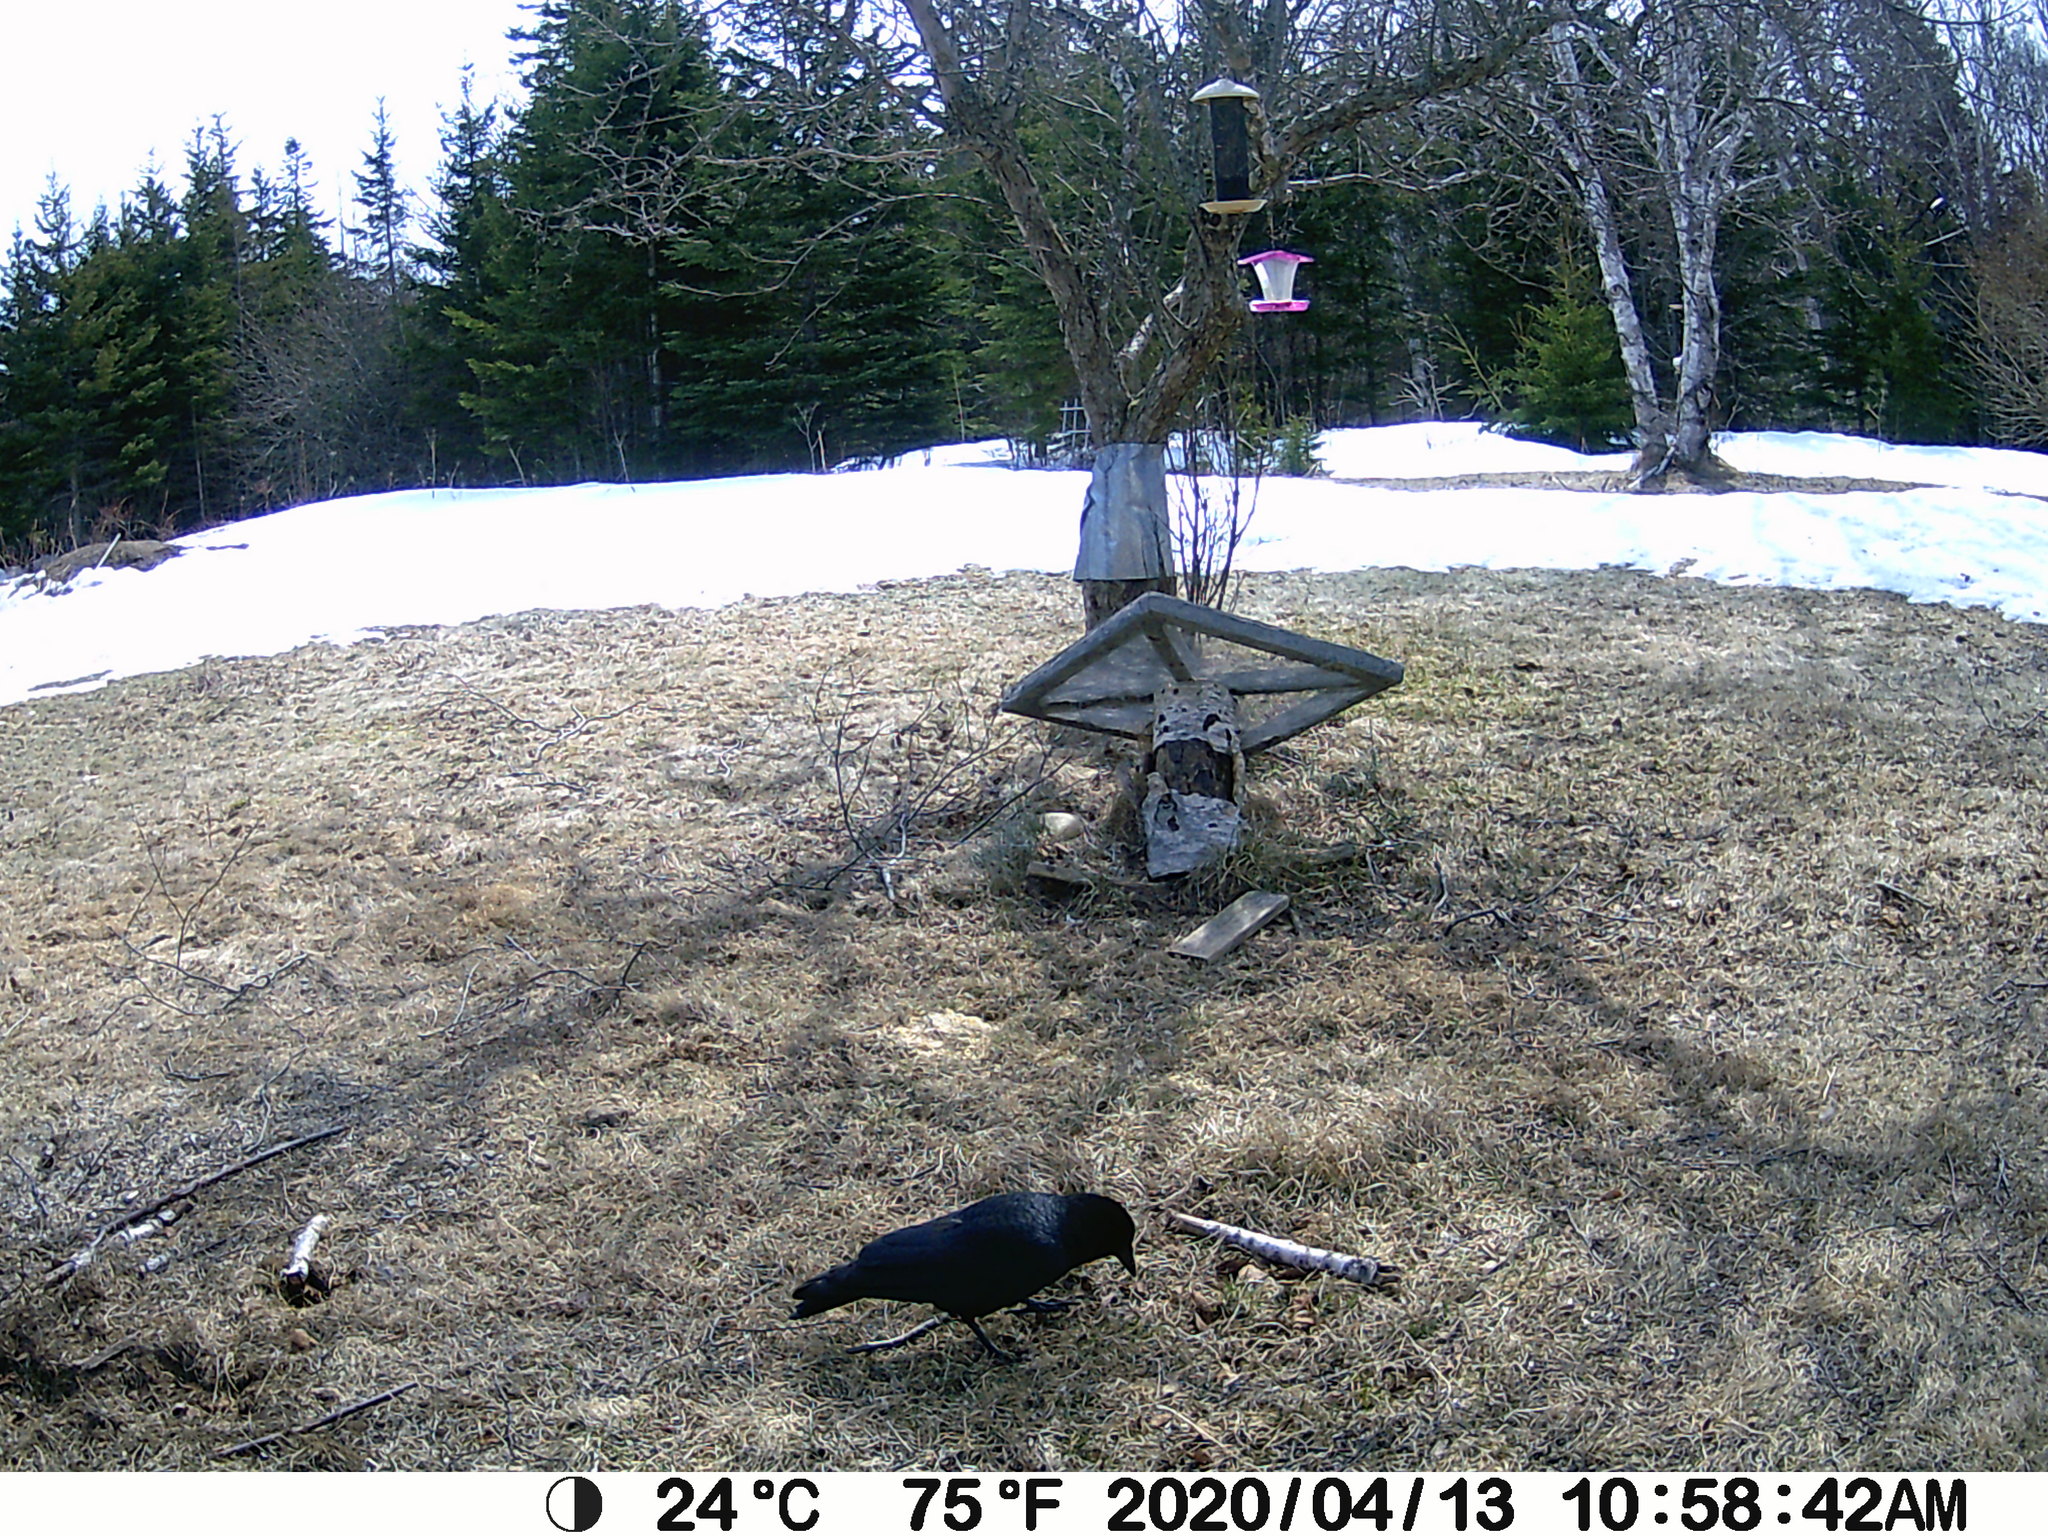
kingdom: Animalia
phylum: Chordata
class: Aves
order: Passeriformes
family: Corvidae
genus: Corvus
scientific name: Corvus brachyrhynchos
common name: American crow
